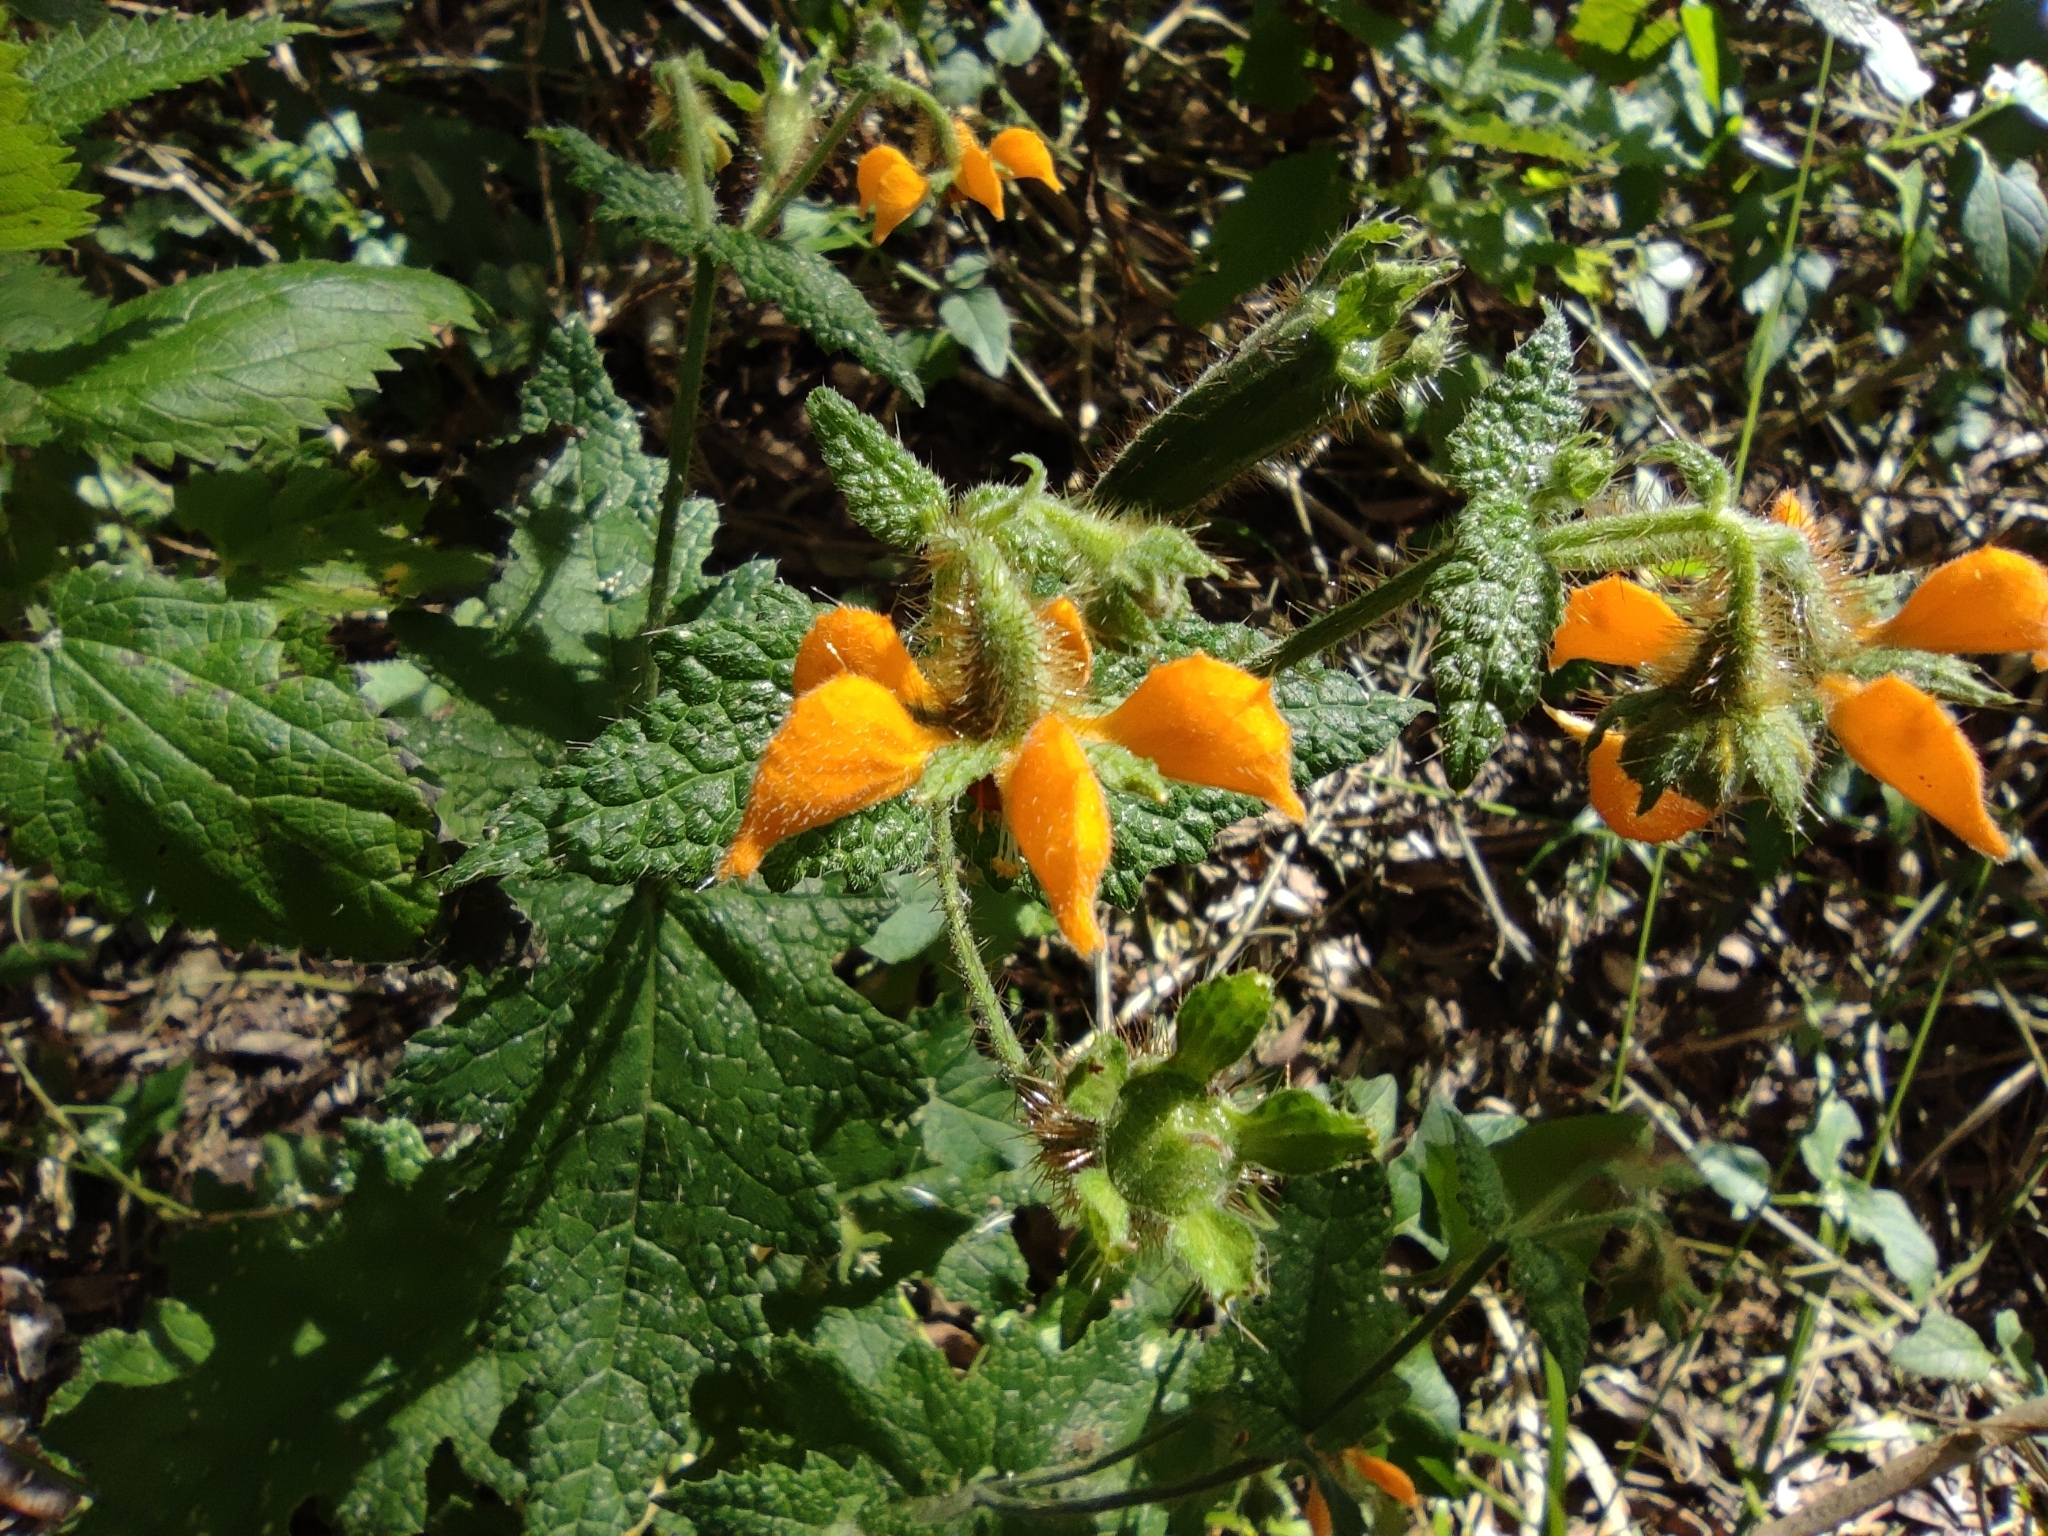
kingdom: Plantae
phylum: Tracheophyta
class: Magnoliopsida
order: Cornales
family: Loasaceae
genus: Loasa
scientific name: Loasa sclareifolia
